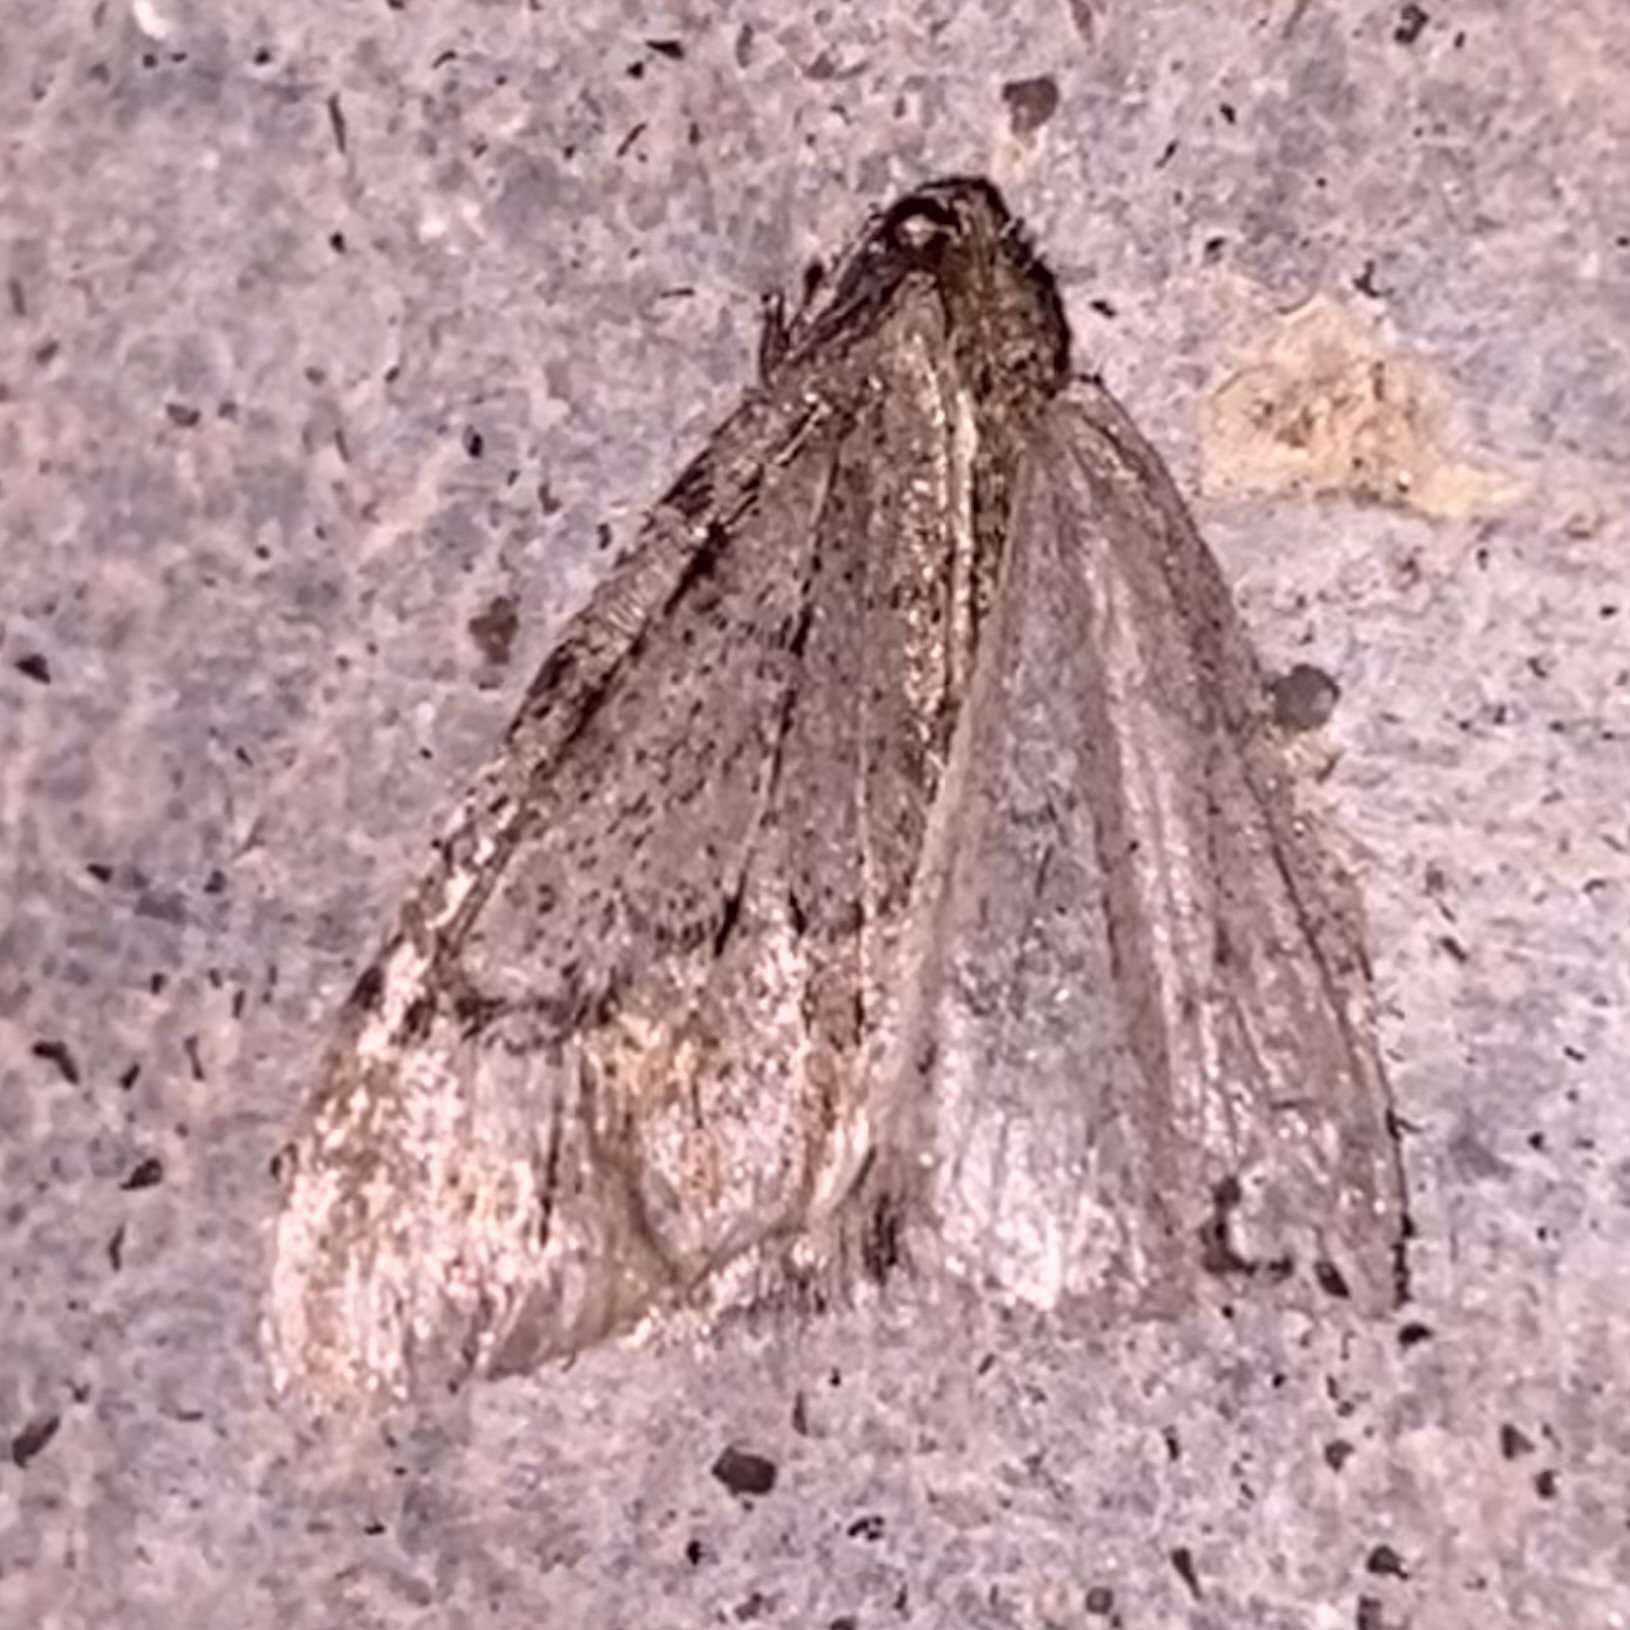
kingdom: Animalia
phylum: Arthropoda
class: Insecta
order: Lepidoptera
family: Geometridae
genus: Paleacrita
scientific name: Paleacrita vernata
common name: Spring cankerworm
